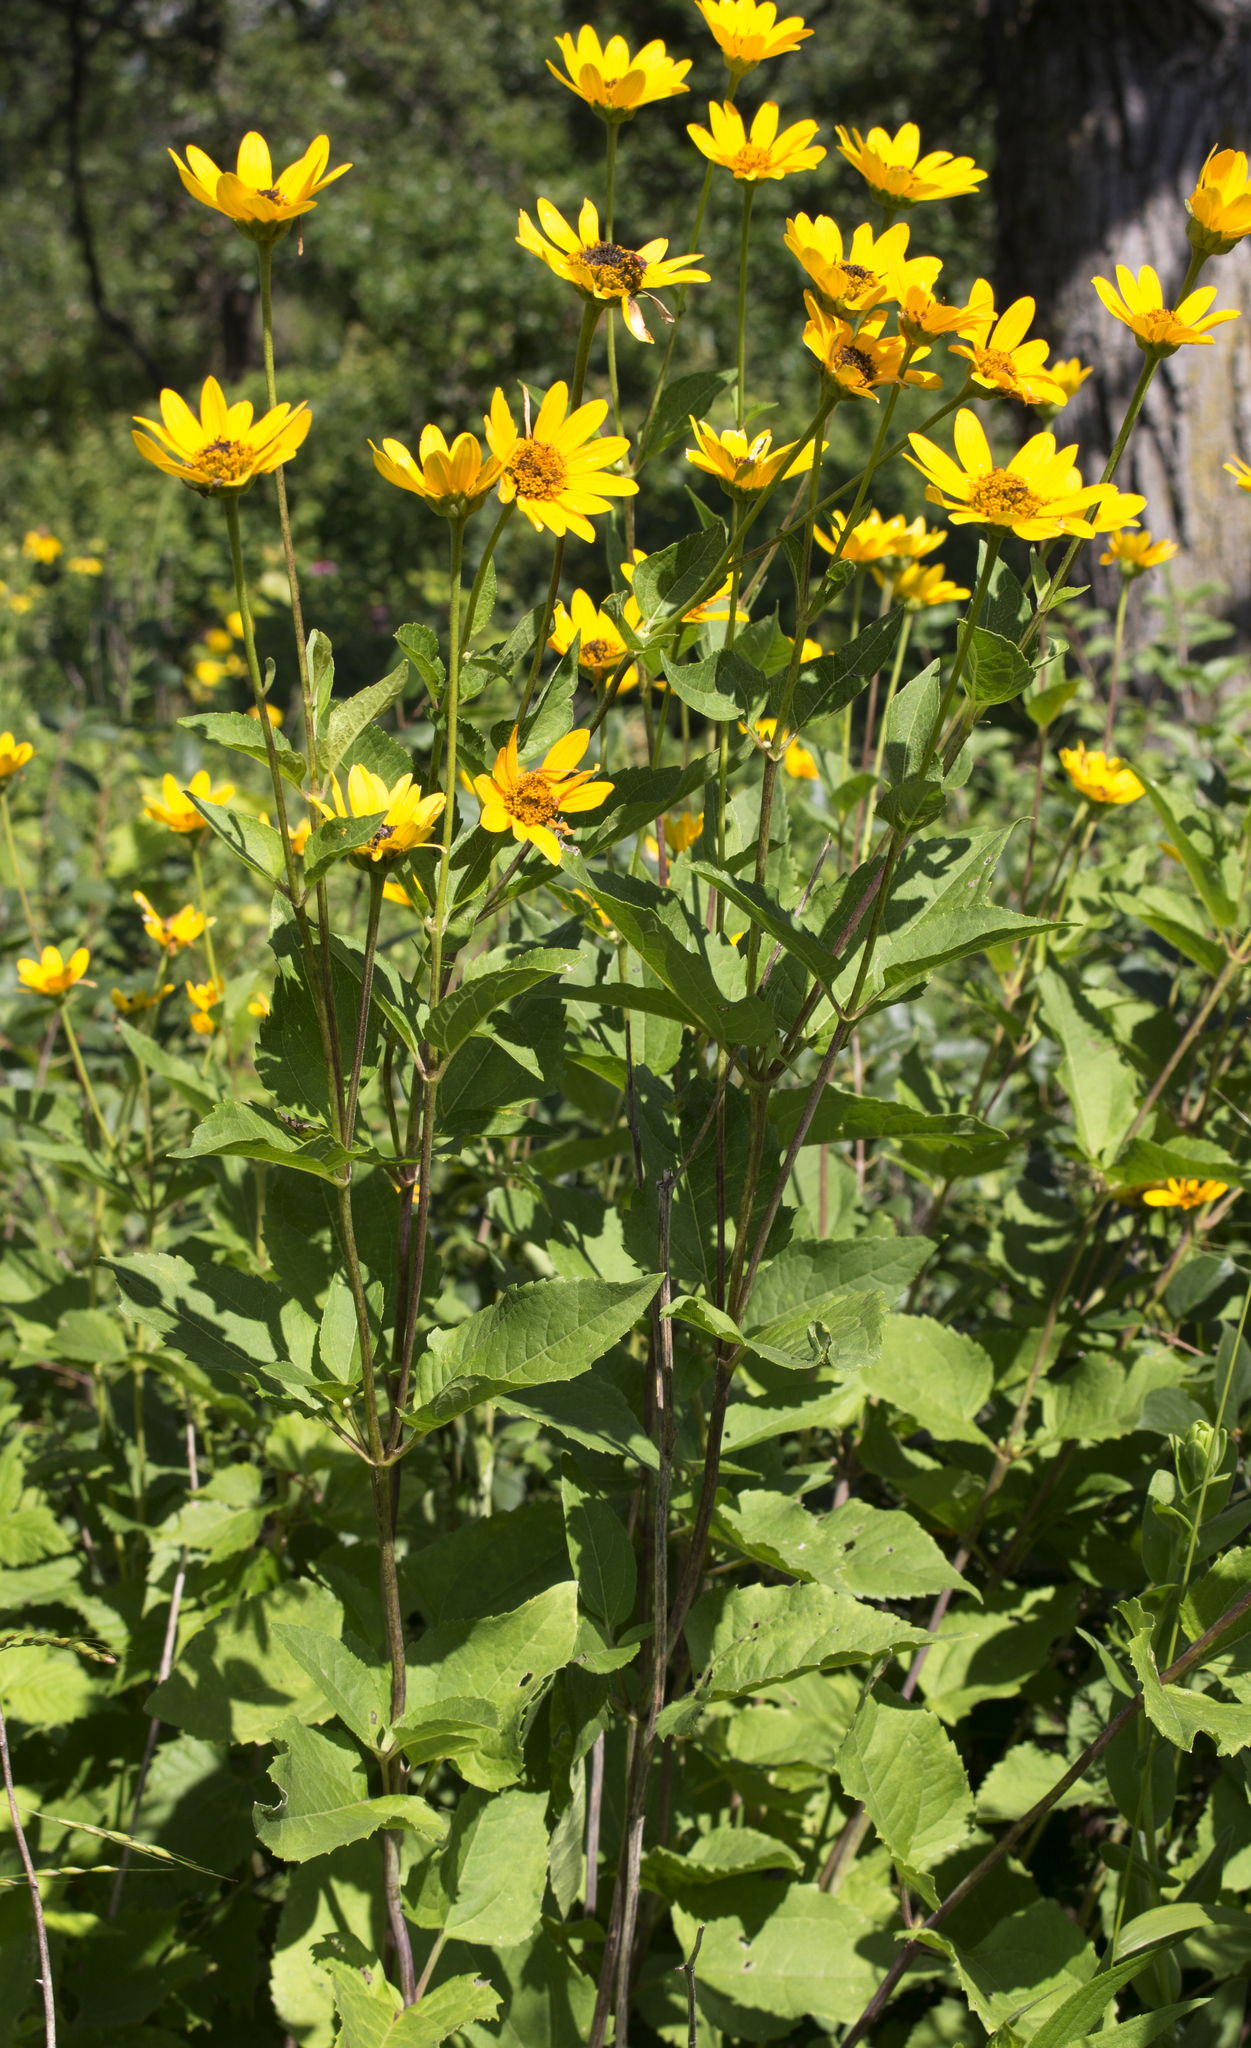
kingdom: Plantae
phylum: Tracheophyta
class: Magnoliopsida
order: Asterales
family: Asteraceae
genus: Heliopsis
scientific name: Heliopsis helianthoides
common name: False sunflower
